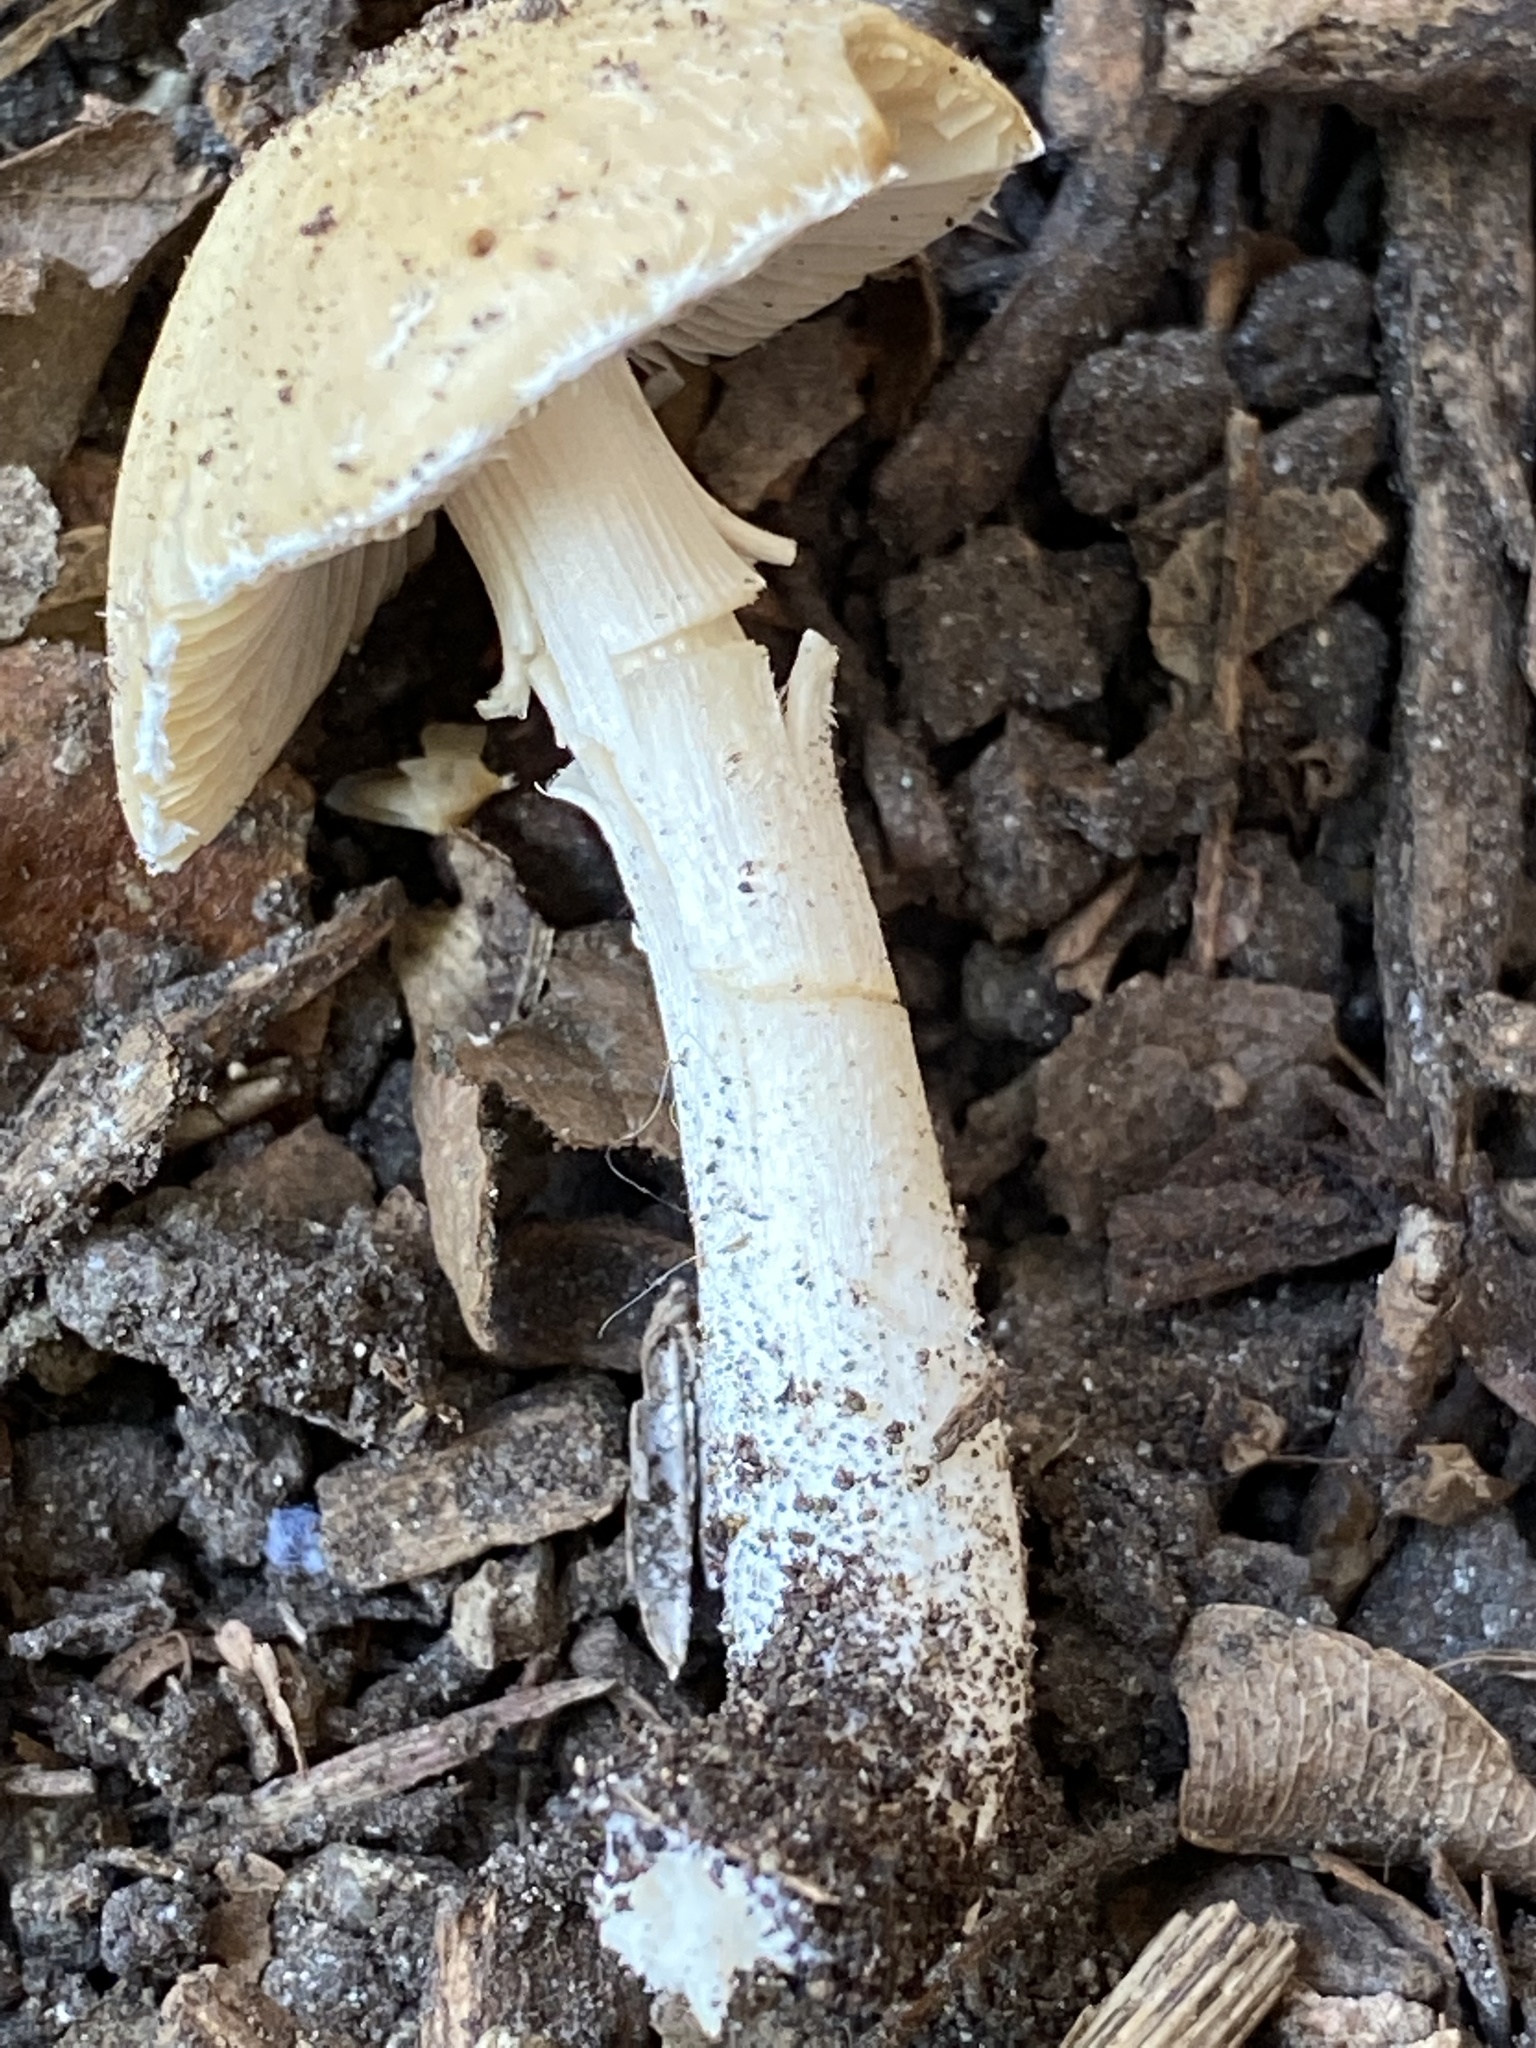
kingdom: Fungi
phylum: Basidiomycota
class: Agaricomycetes
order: Agaricales
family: Psathyrellaceae
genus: Candolleomyces
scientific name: Candolleomyces candolleanus
